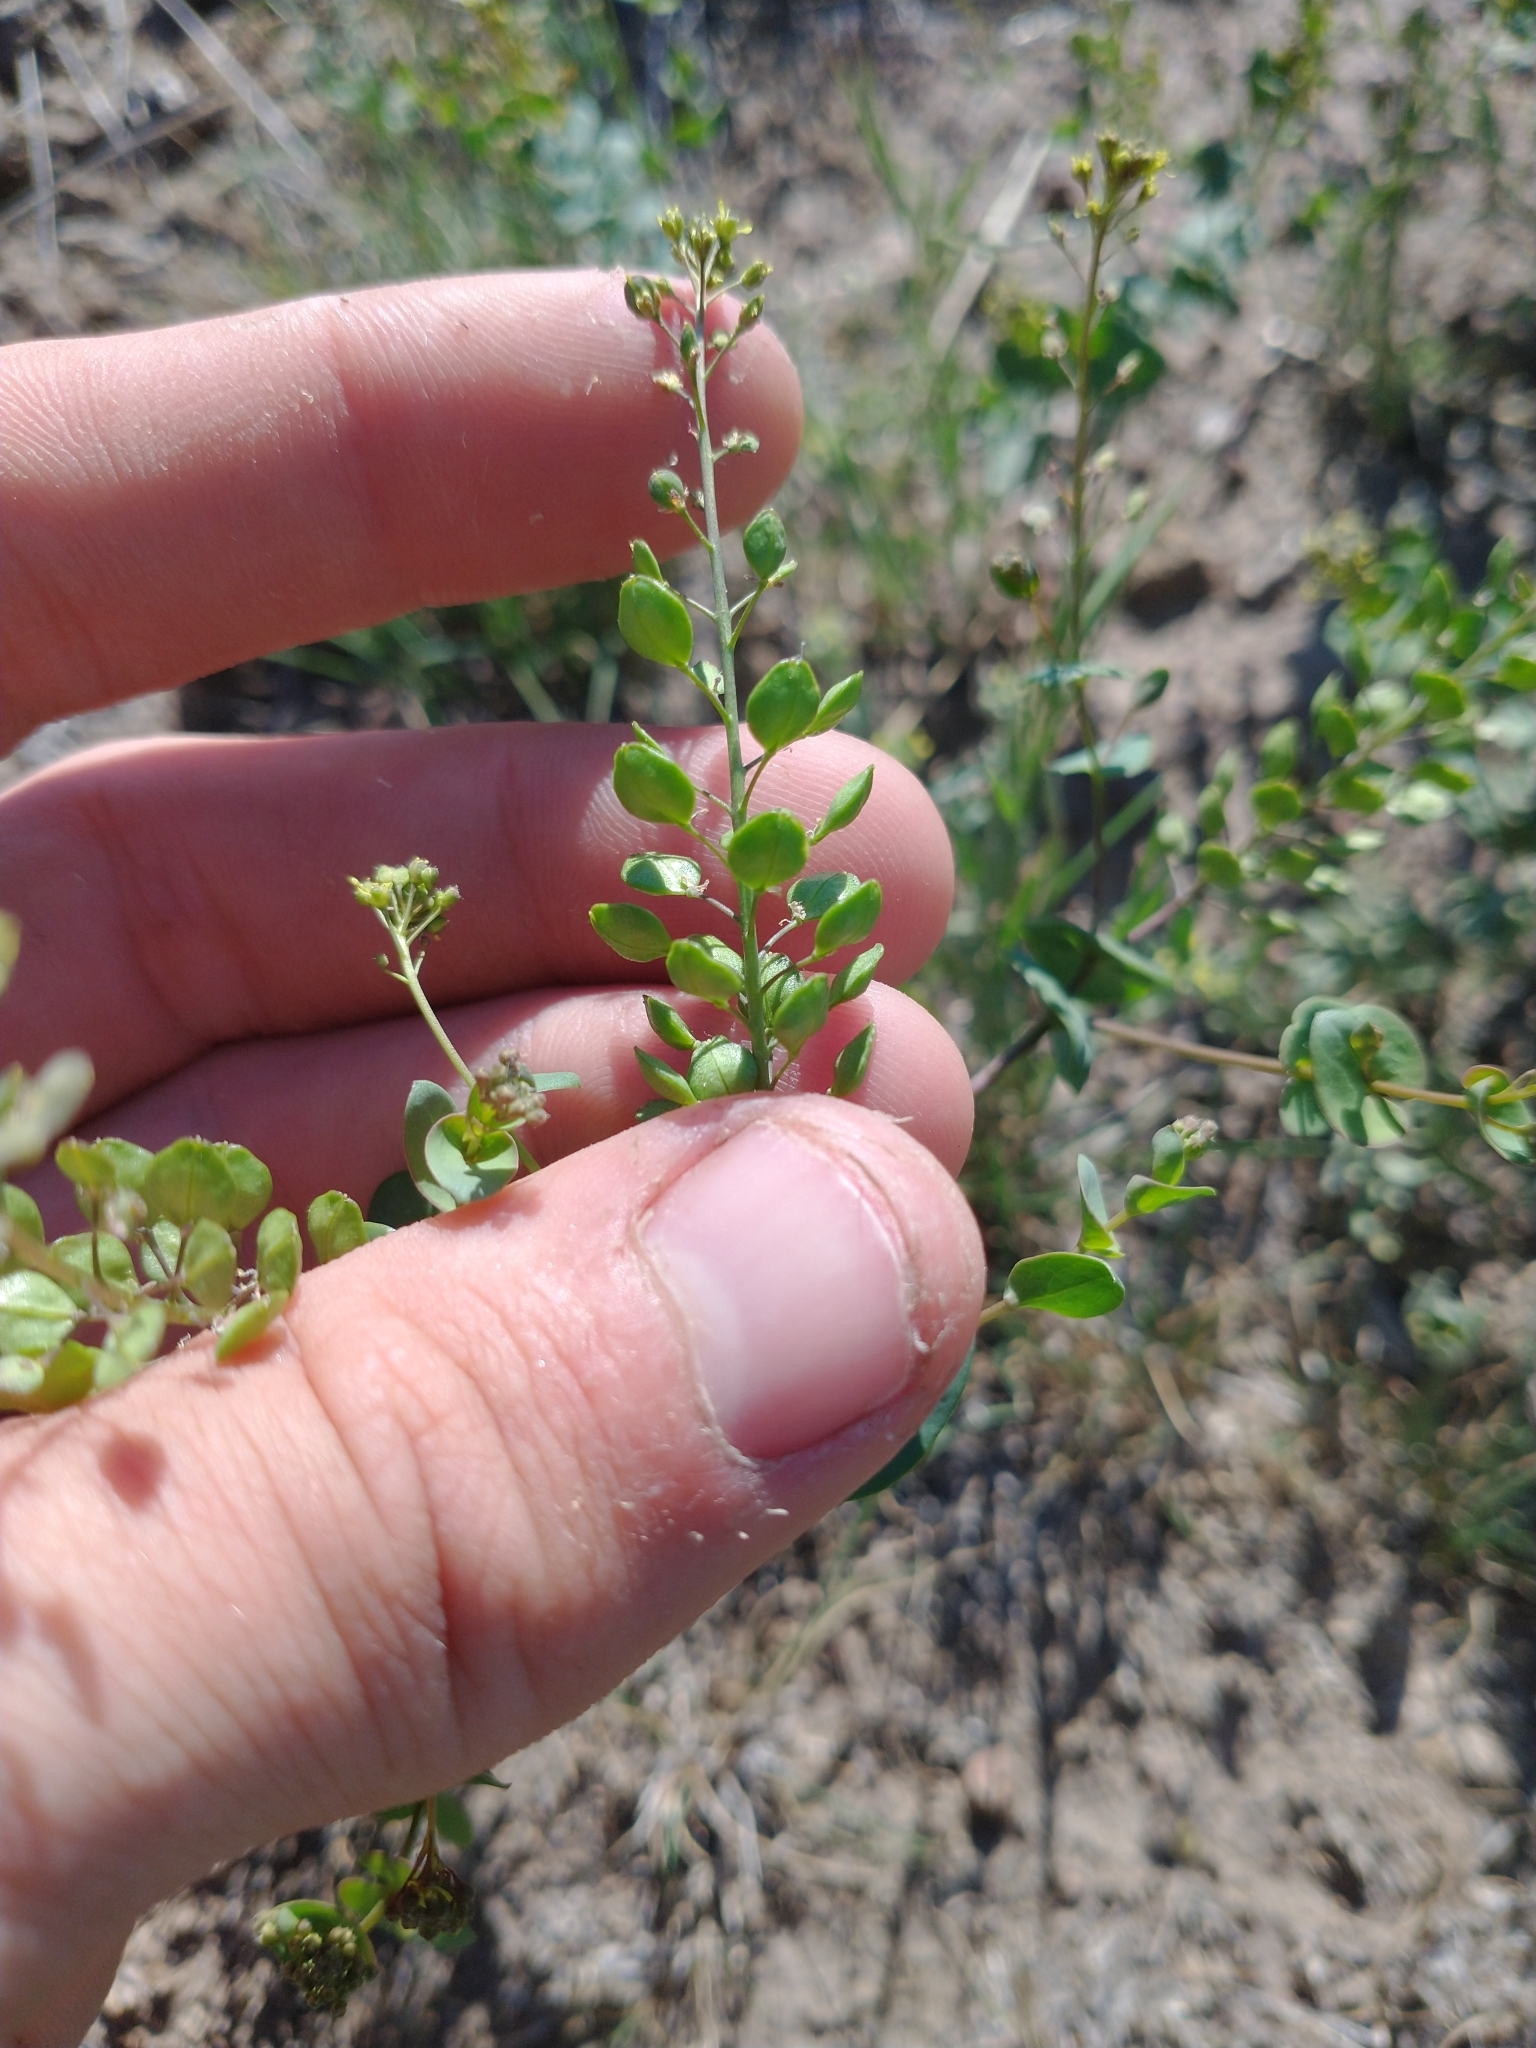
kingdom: Plantae
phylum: Tracheophyta
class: Magnoliopsida
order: Brassicales
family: Brassicaceae
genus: Lepidium
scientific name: Lepidium perfoliatum
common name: Perfoliate pepperwort
